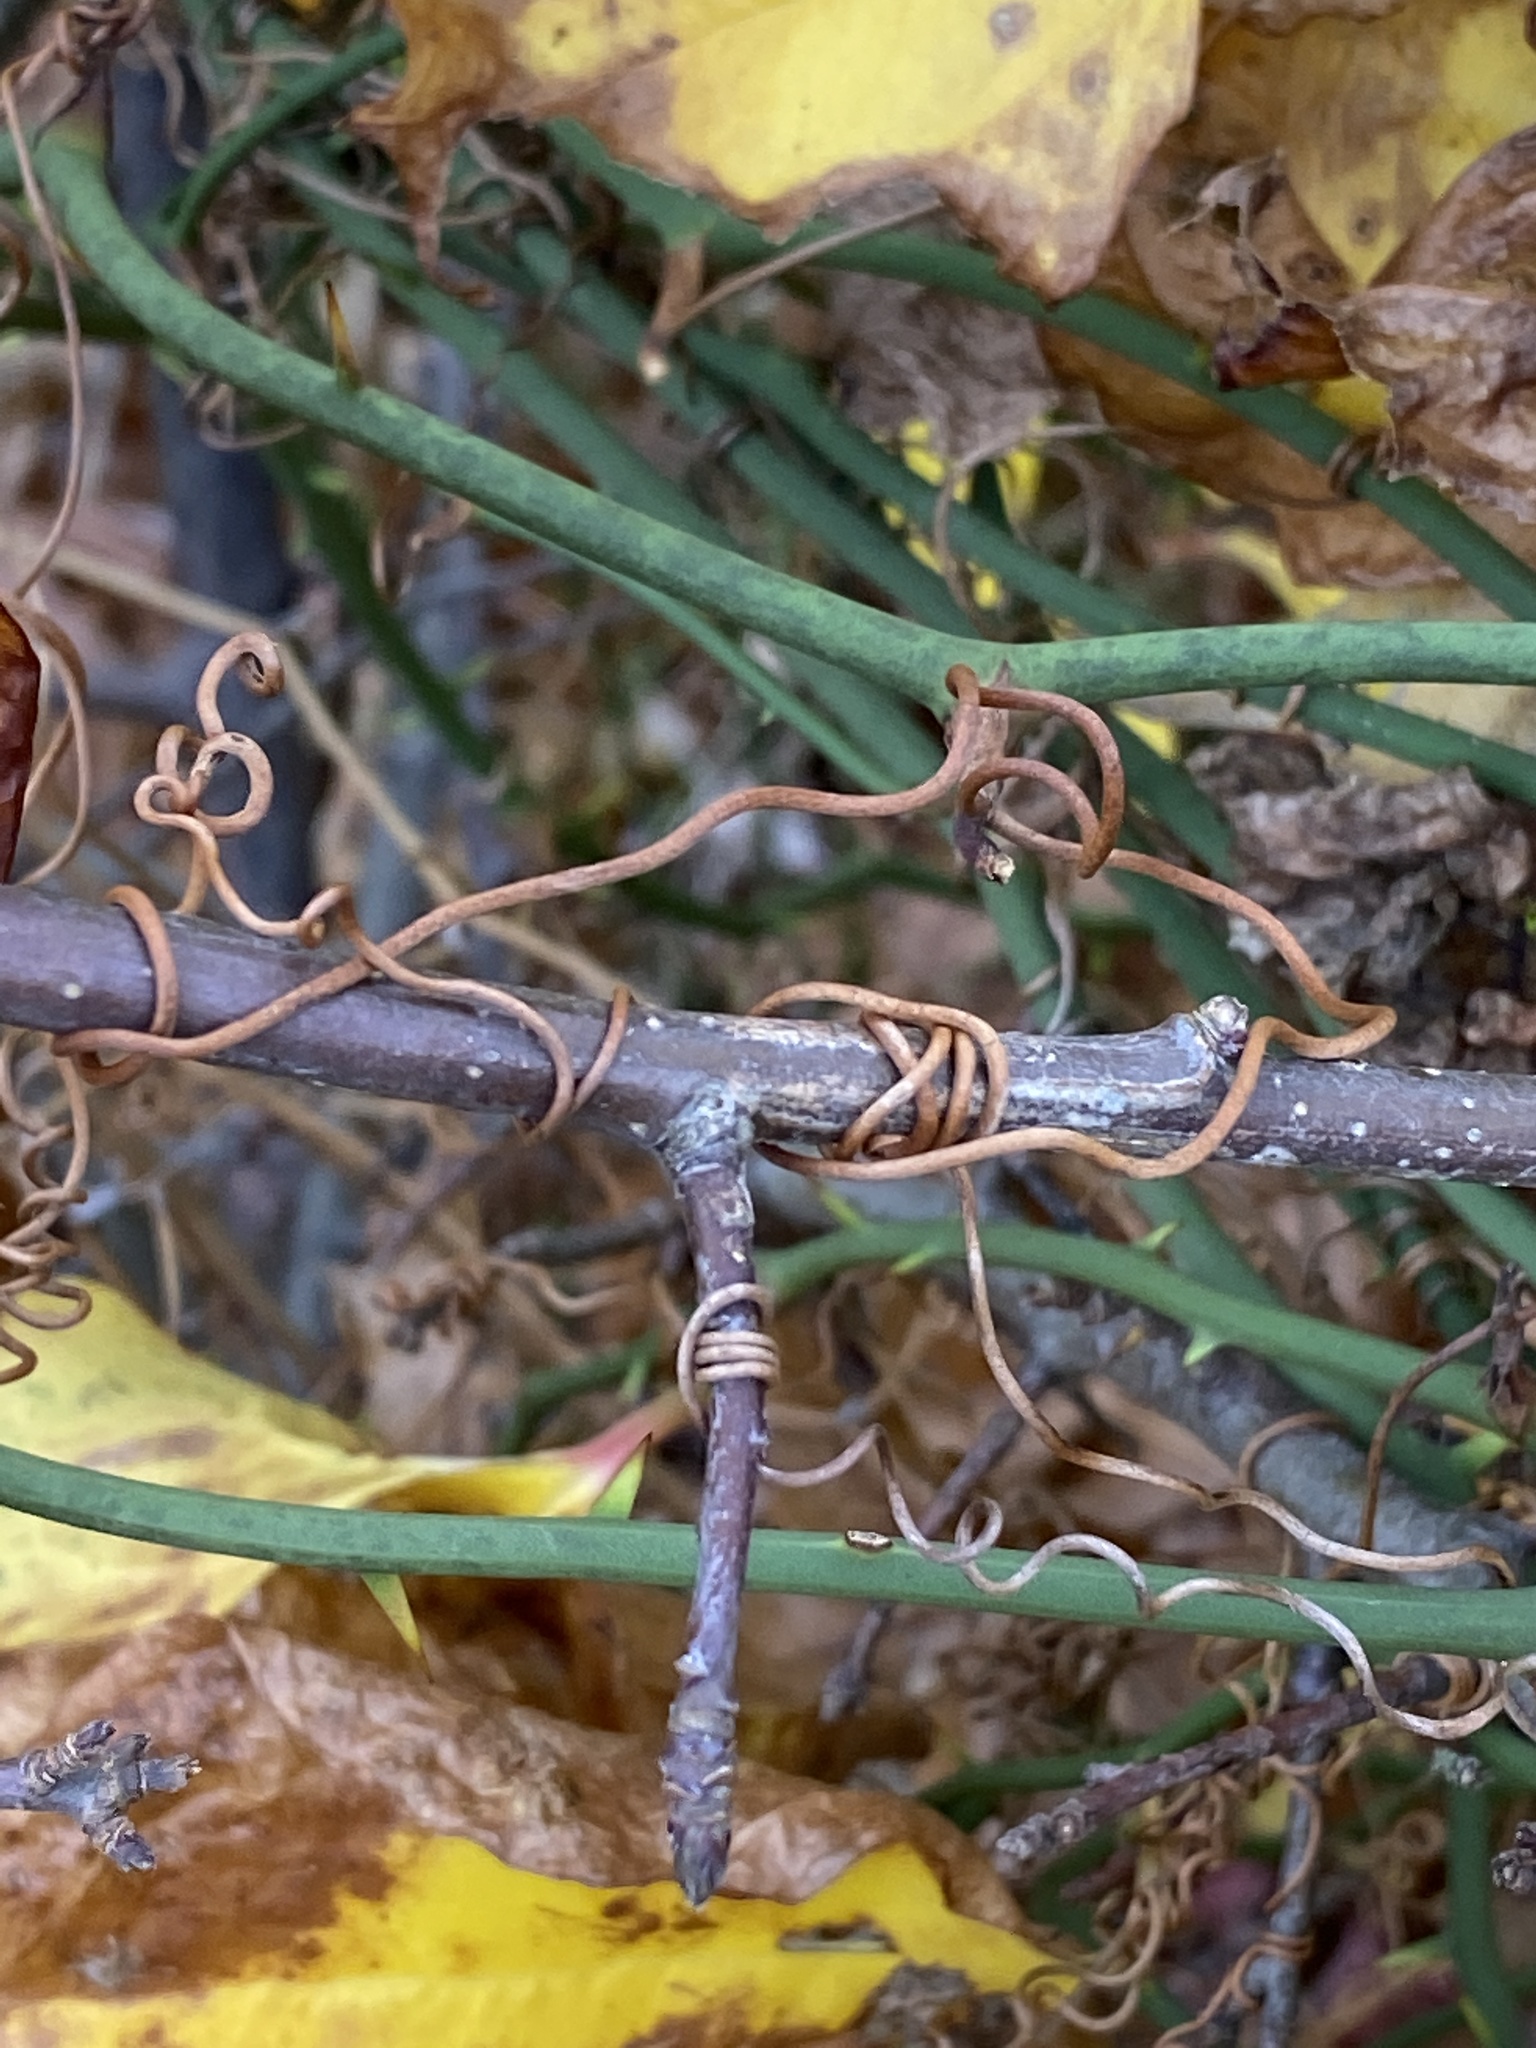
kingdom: Plantae
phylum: Tracheophyta
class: Liliopsida
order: Liliales
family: Smilacaceae
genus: Smilax
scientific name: Smilax rotundifolia
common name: Bullbriar
